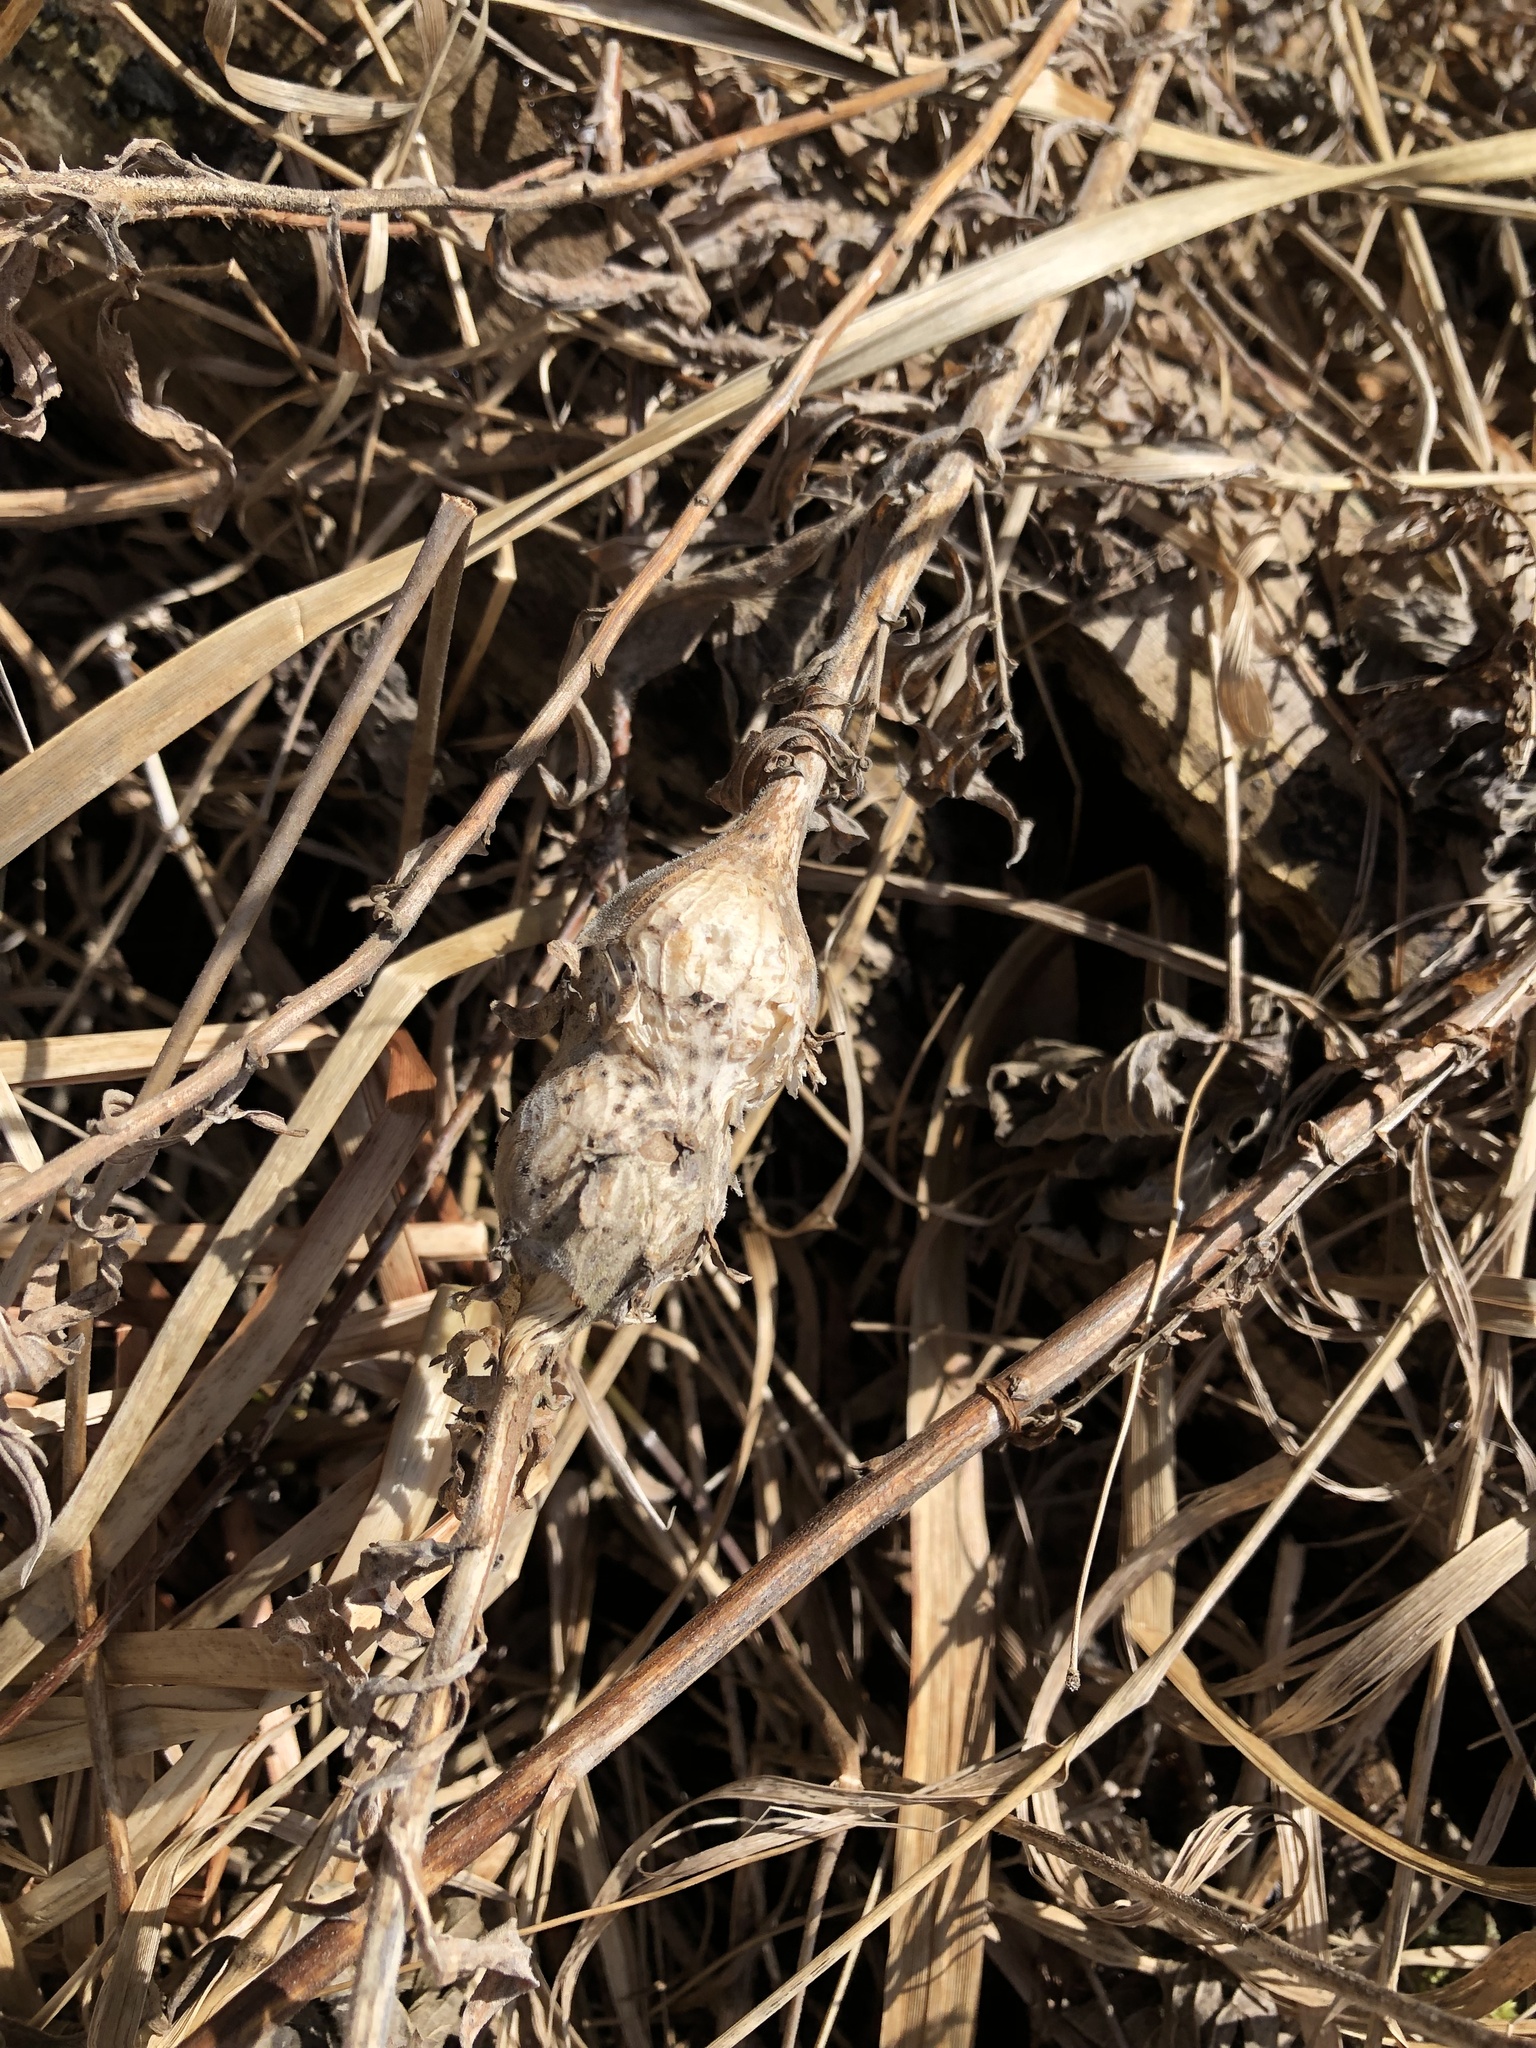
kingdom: Animalia
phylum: Arthropoda
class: Insecta
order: Diptera
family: Tephritidae
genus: Eurosta
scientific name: Eurosta solidaginis
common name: Goldenrod gall fly
